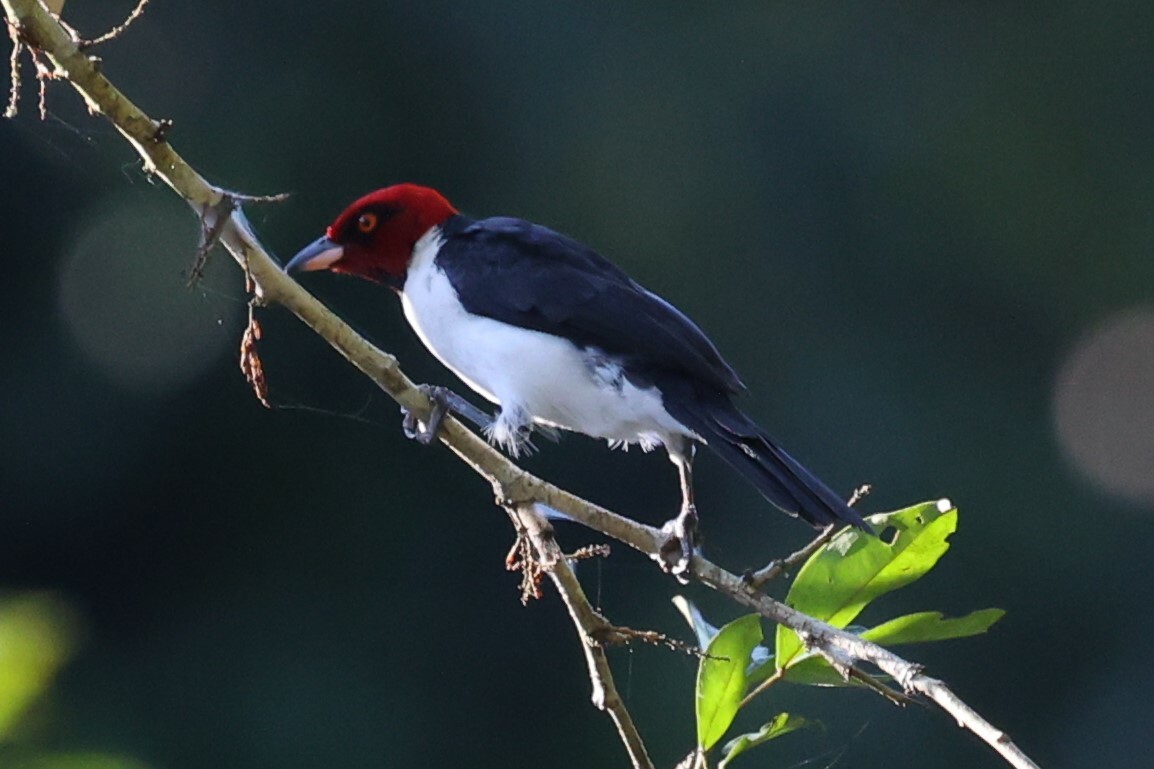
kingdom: Animalia
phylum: Chordata
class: Aves
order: Passeriformes
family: Thraupidae
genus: Paroaria
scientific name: Paroaria gularis
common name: Red-capped cardinal
